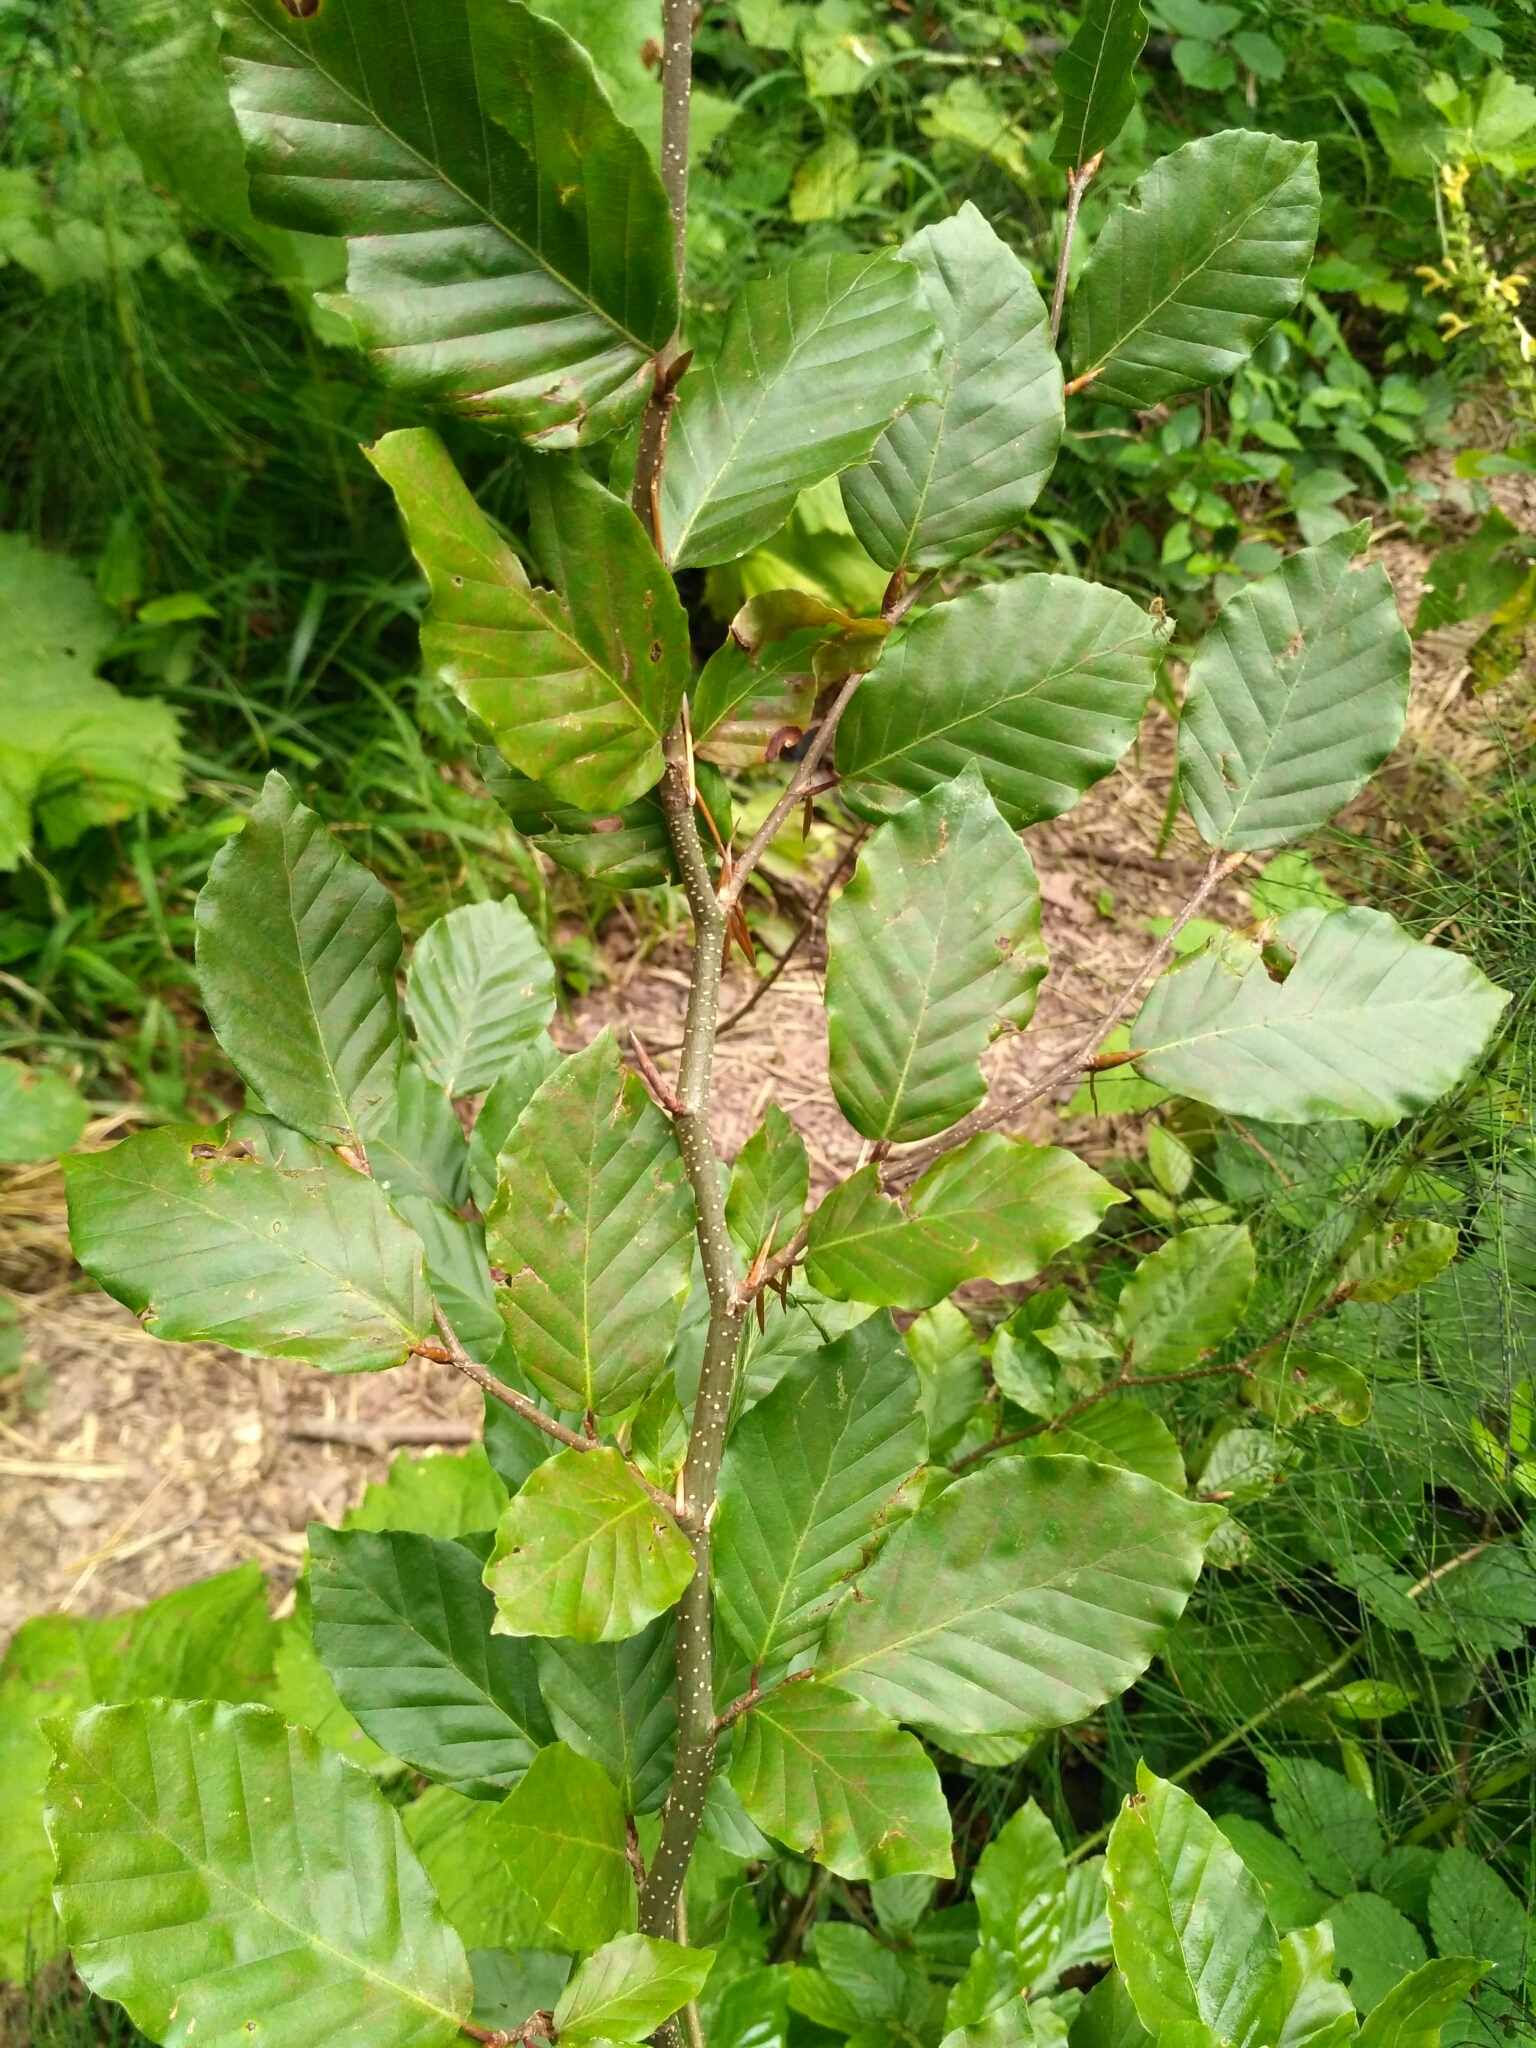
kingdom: Plantae
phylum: Tracheophyta
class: Magnoliopsida
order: Fagales
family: Fagaceae
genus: Fagus
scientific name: Fagus sylvatica
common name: Beech
